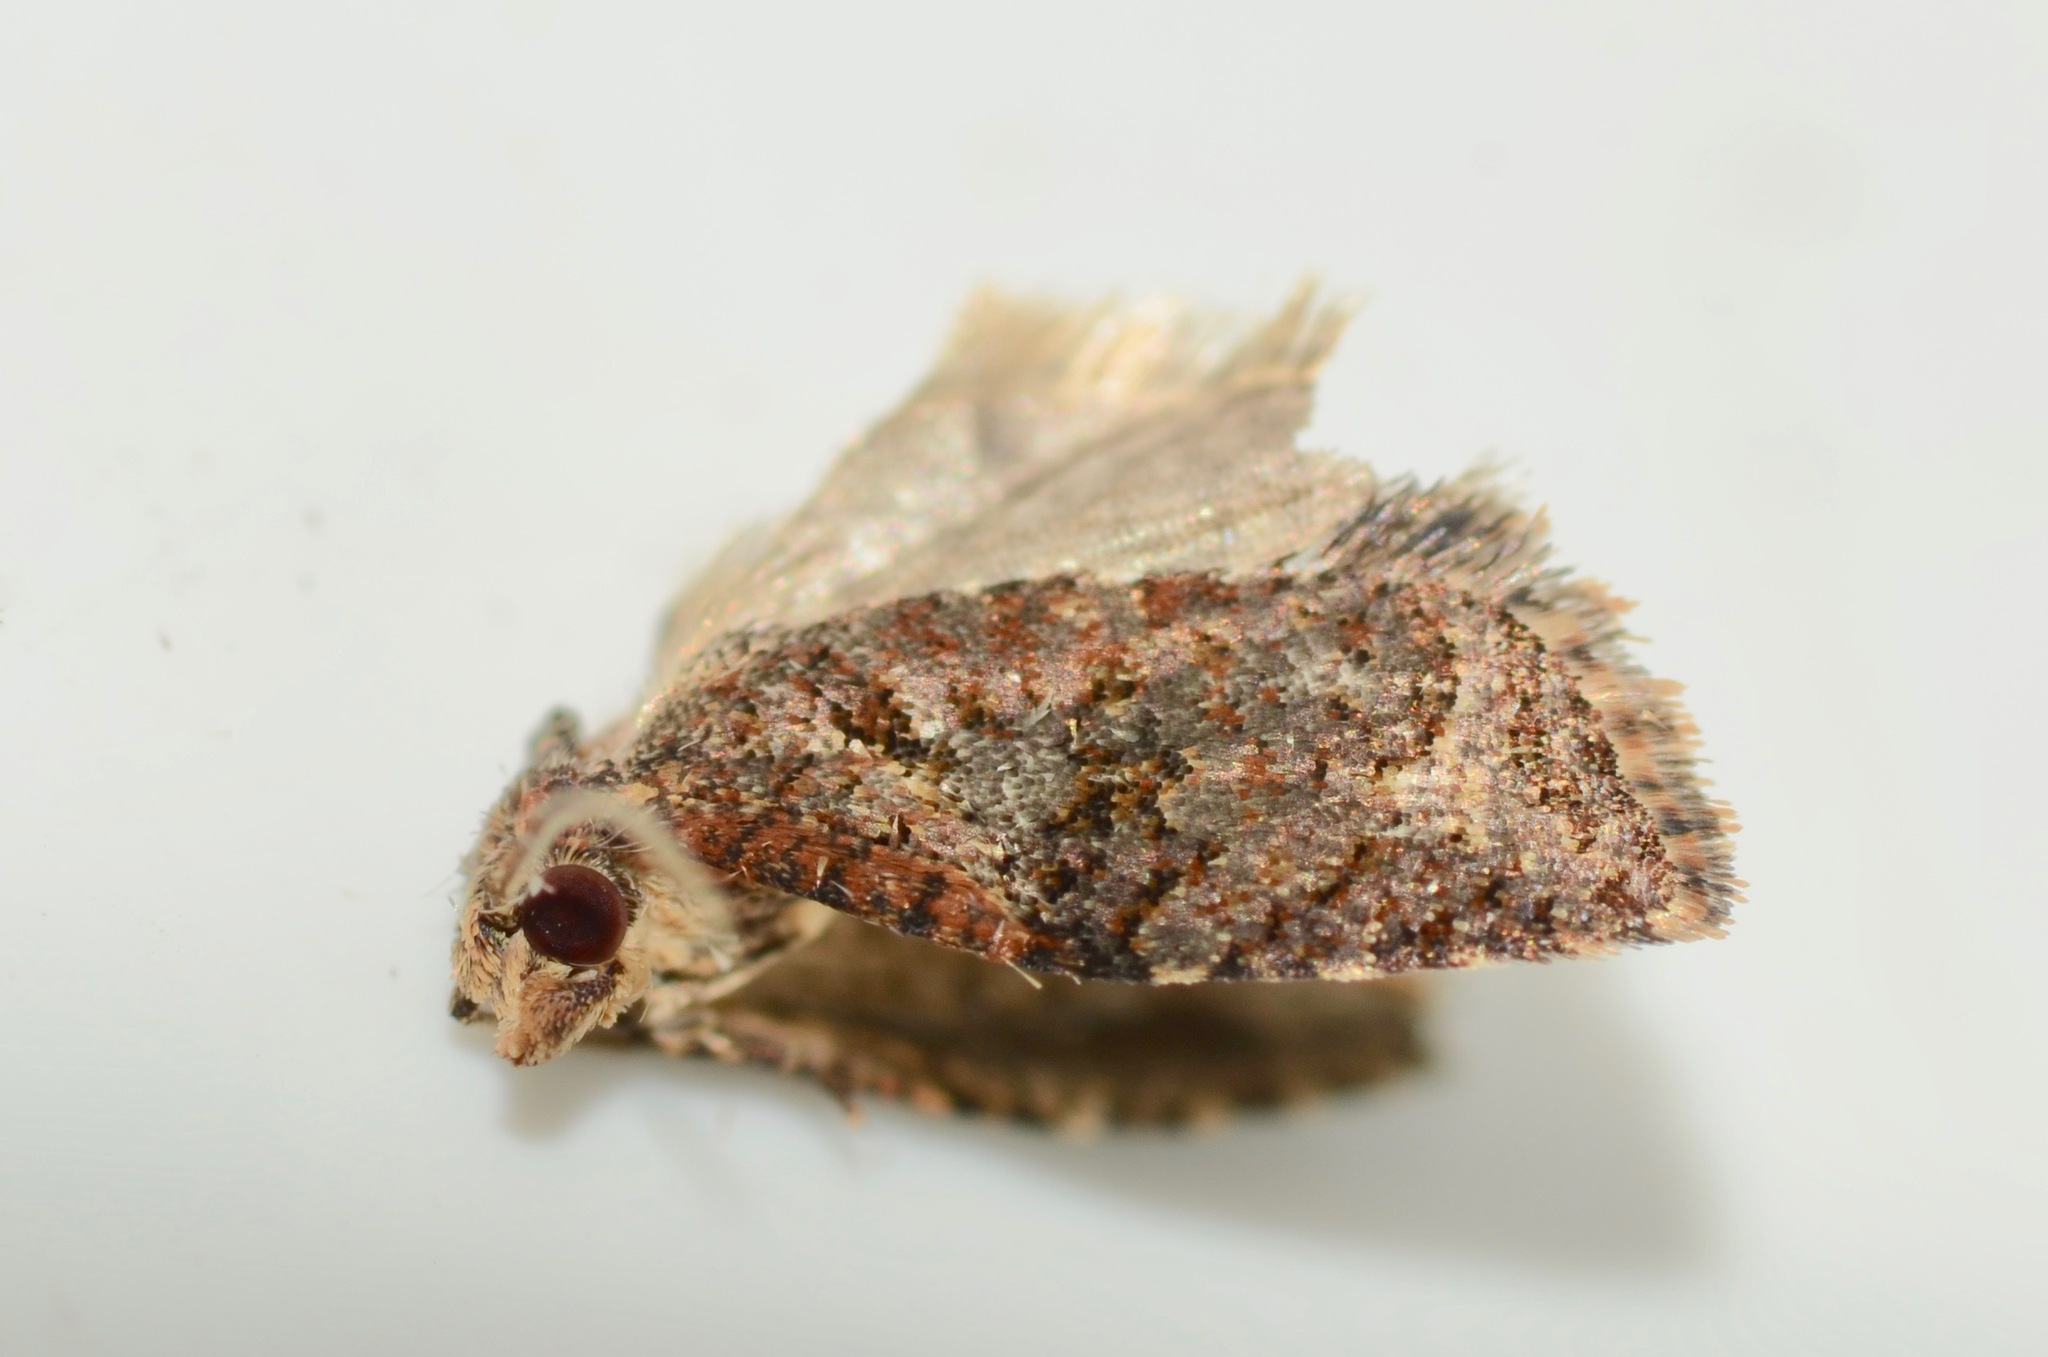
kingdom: Animalia
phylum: Arthropoda
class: Insecta
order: Lepidoptera
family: Tortricidae
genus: Capua
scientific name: Capua intractana
